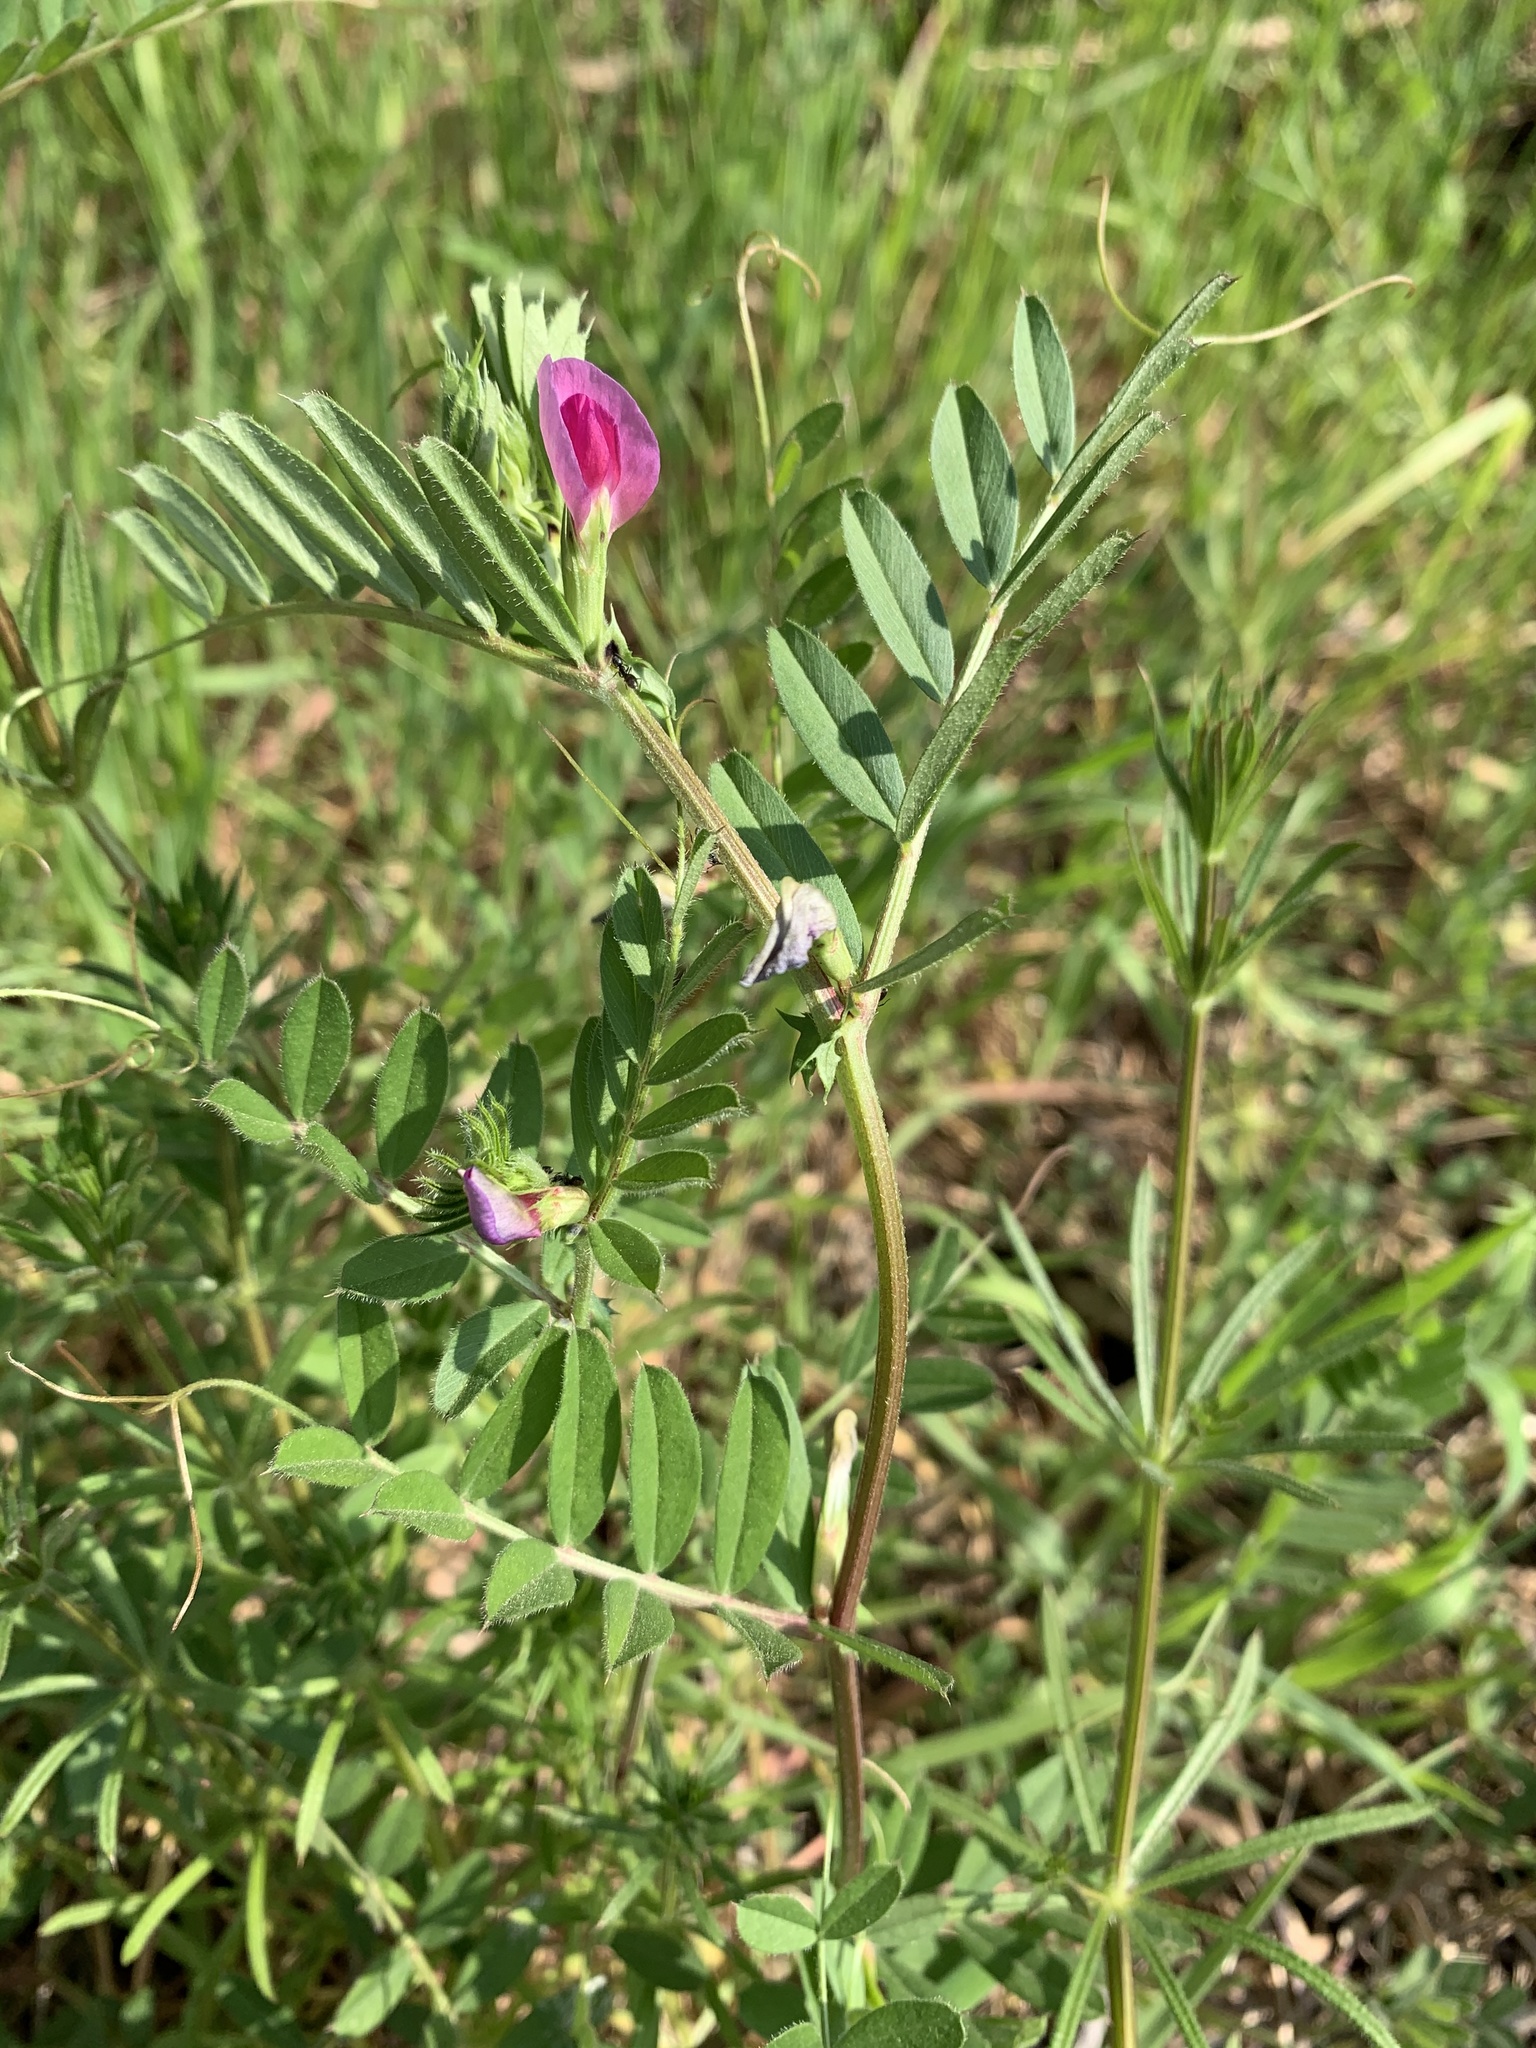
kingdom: Plantae
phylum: Tracheophyta
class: Magnoliopsida
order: Fabales
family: Fabaceae
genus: Vicia
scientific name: Vicia sativa
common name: Garden vetch
